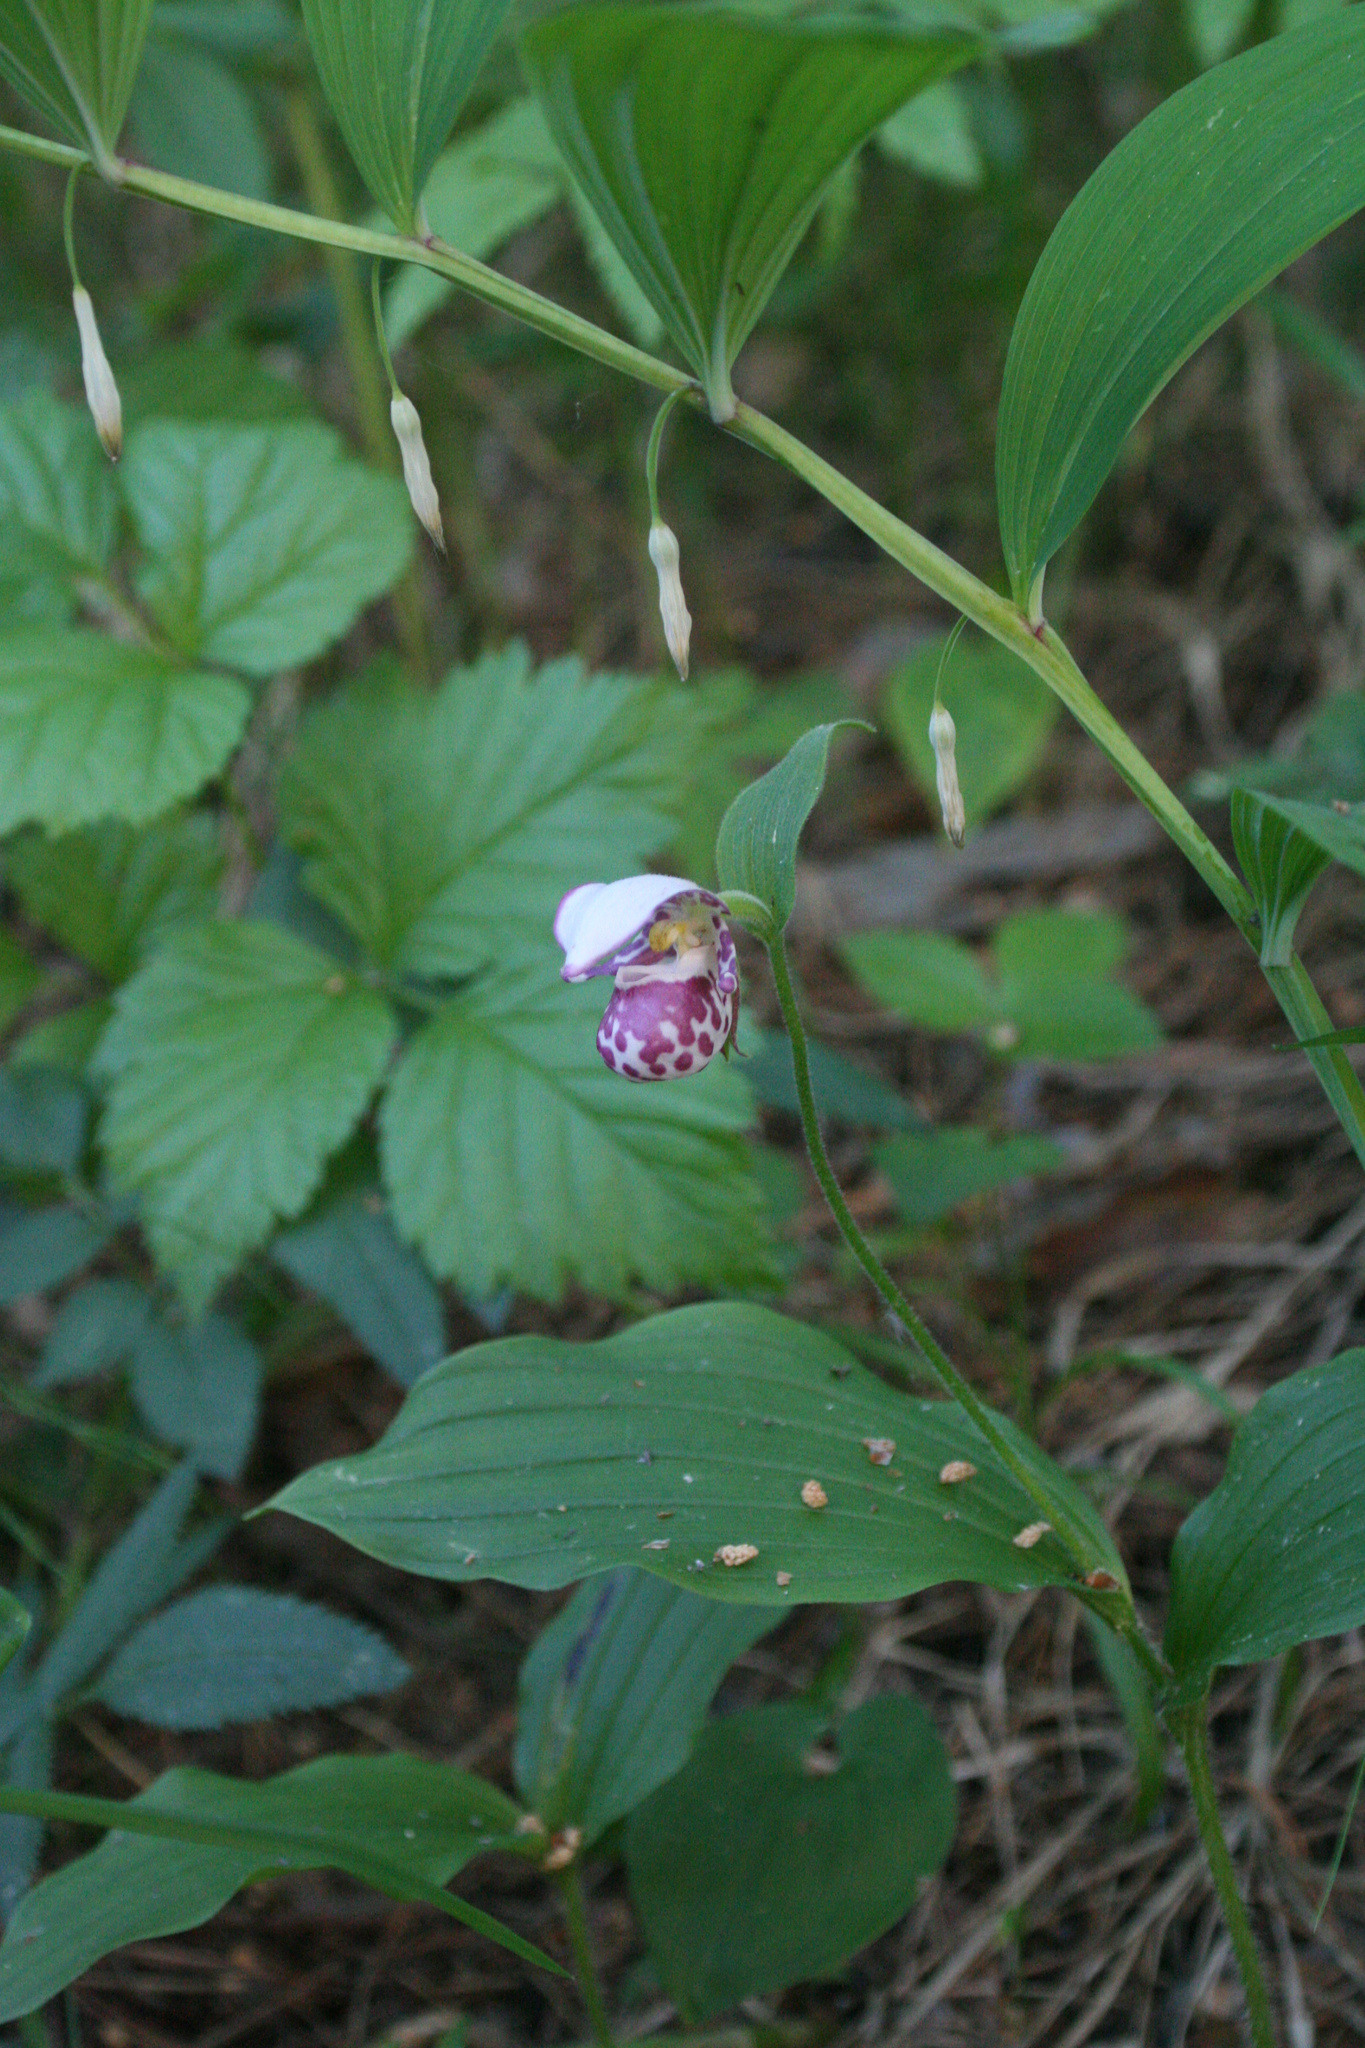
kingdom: Plantae
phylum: Tracheophyta
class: Liliopsida
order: Asparagales
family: Orchidaceae
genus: Cypripedium
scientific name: Cypripedium guttatum
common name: Pink lady slipper
